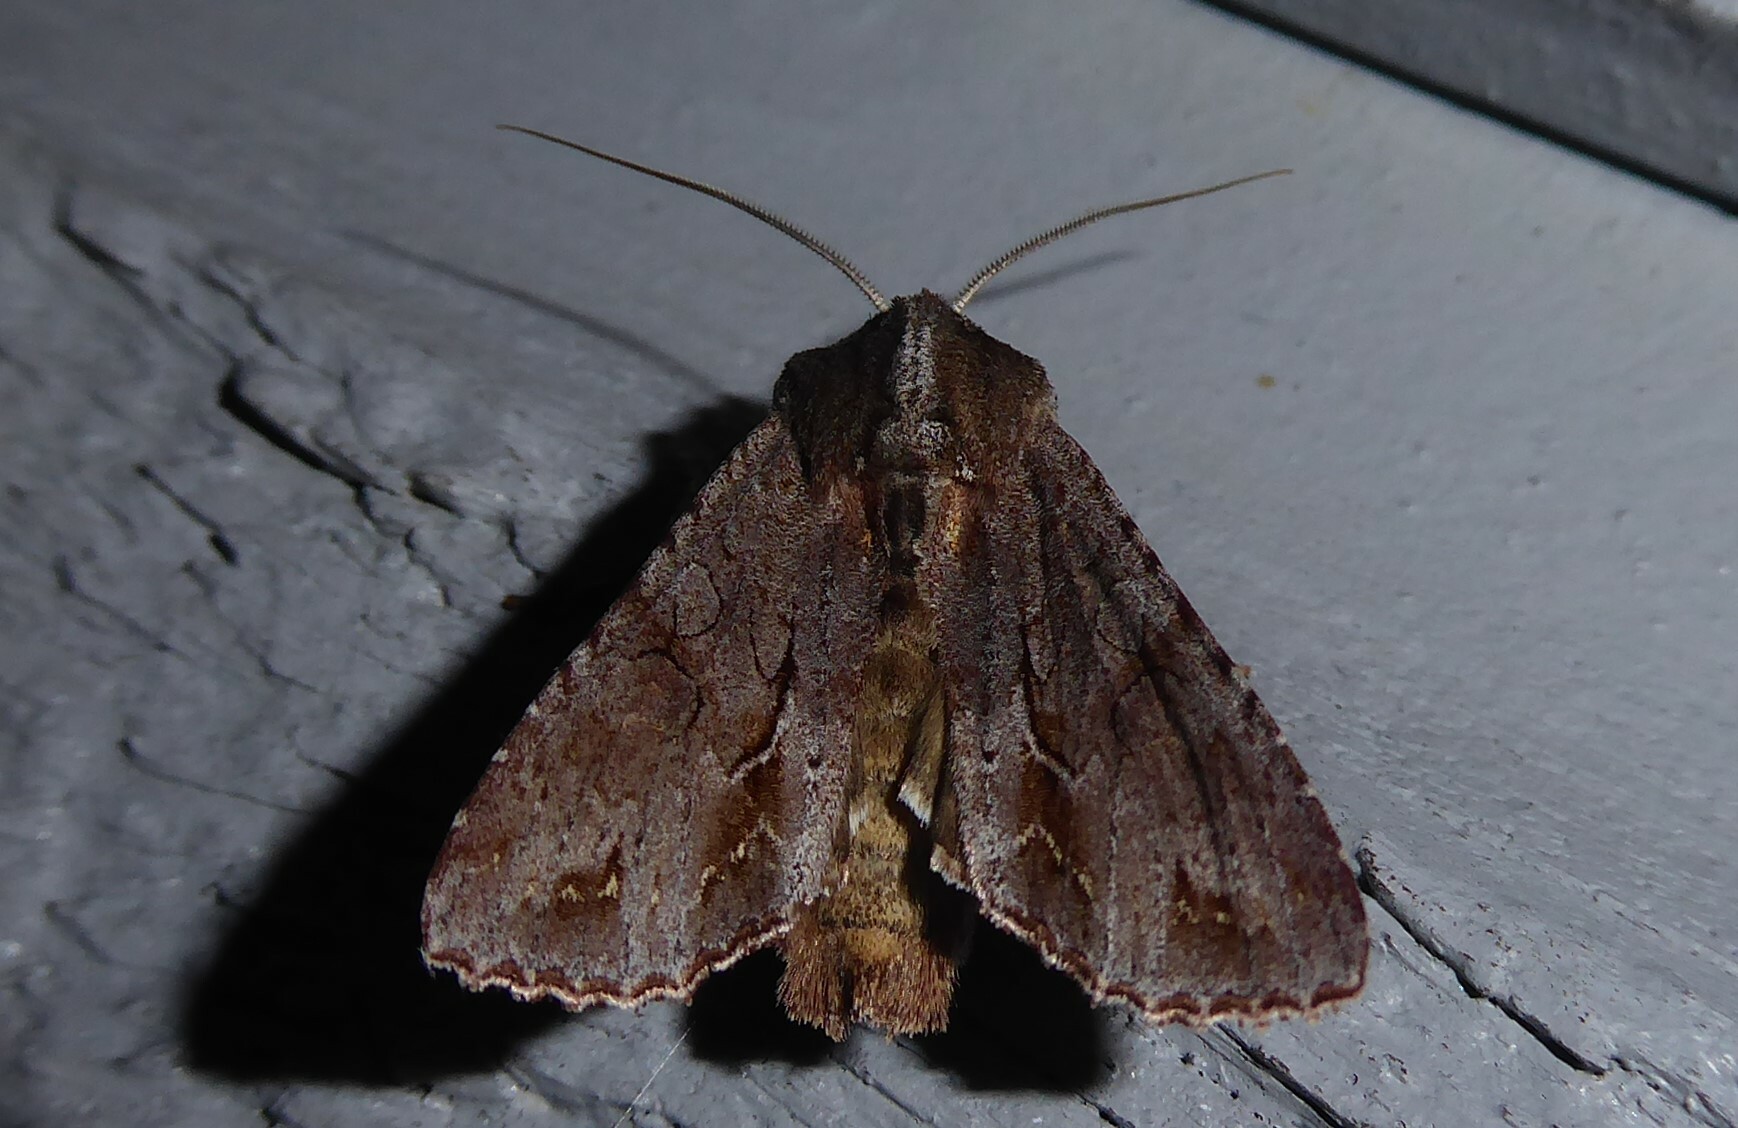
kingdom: Animalia
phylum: Arthropoda
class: Insecta
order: Lepidoptera
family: Noctuidae
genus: Ichneutica
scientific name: Ichneutica
